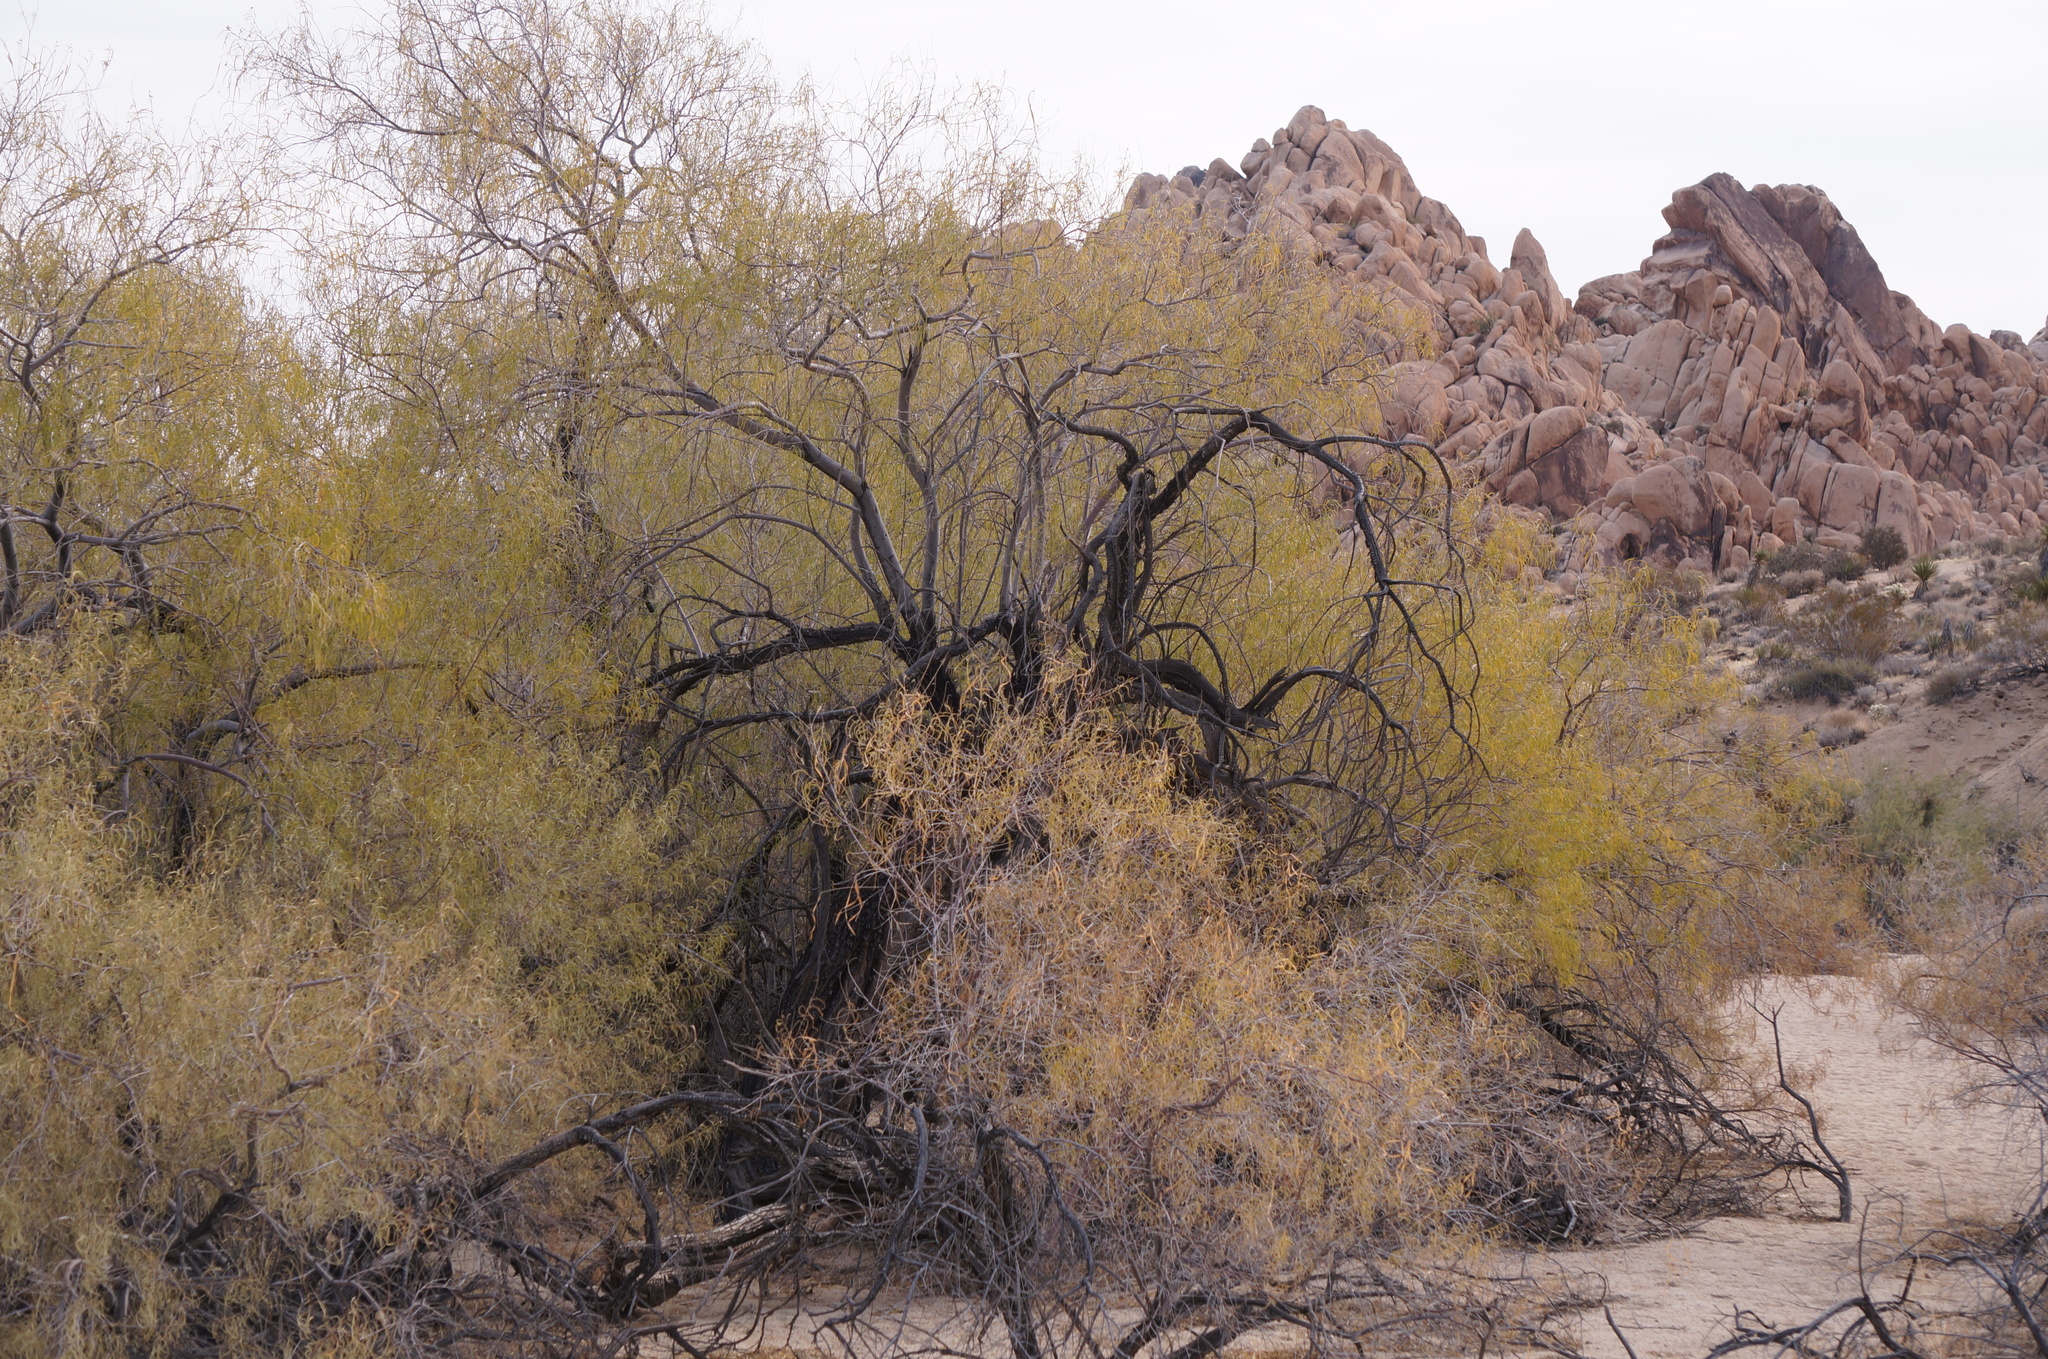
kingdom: Plantae
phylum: Tracheophyta
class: Magnoliopsida
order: Lamiales
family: Bignoniaceae
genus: Chilopsis
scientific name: Chilopsis linearis
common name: Desert-willow
